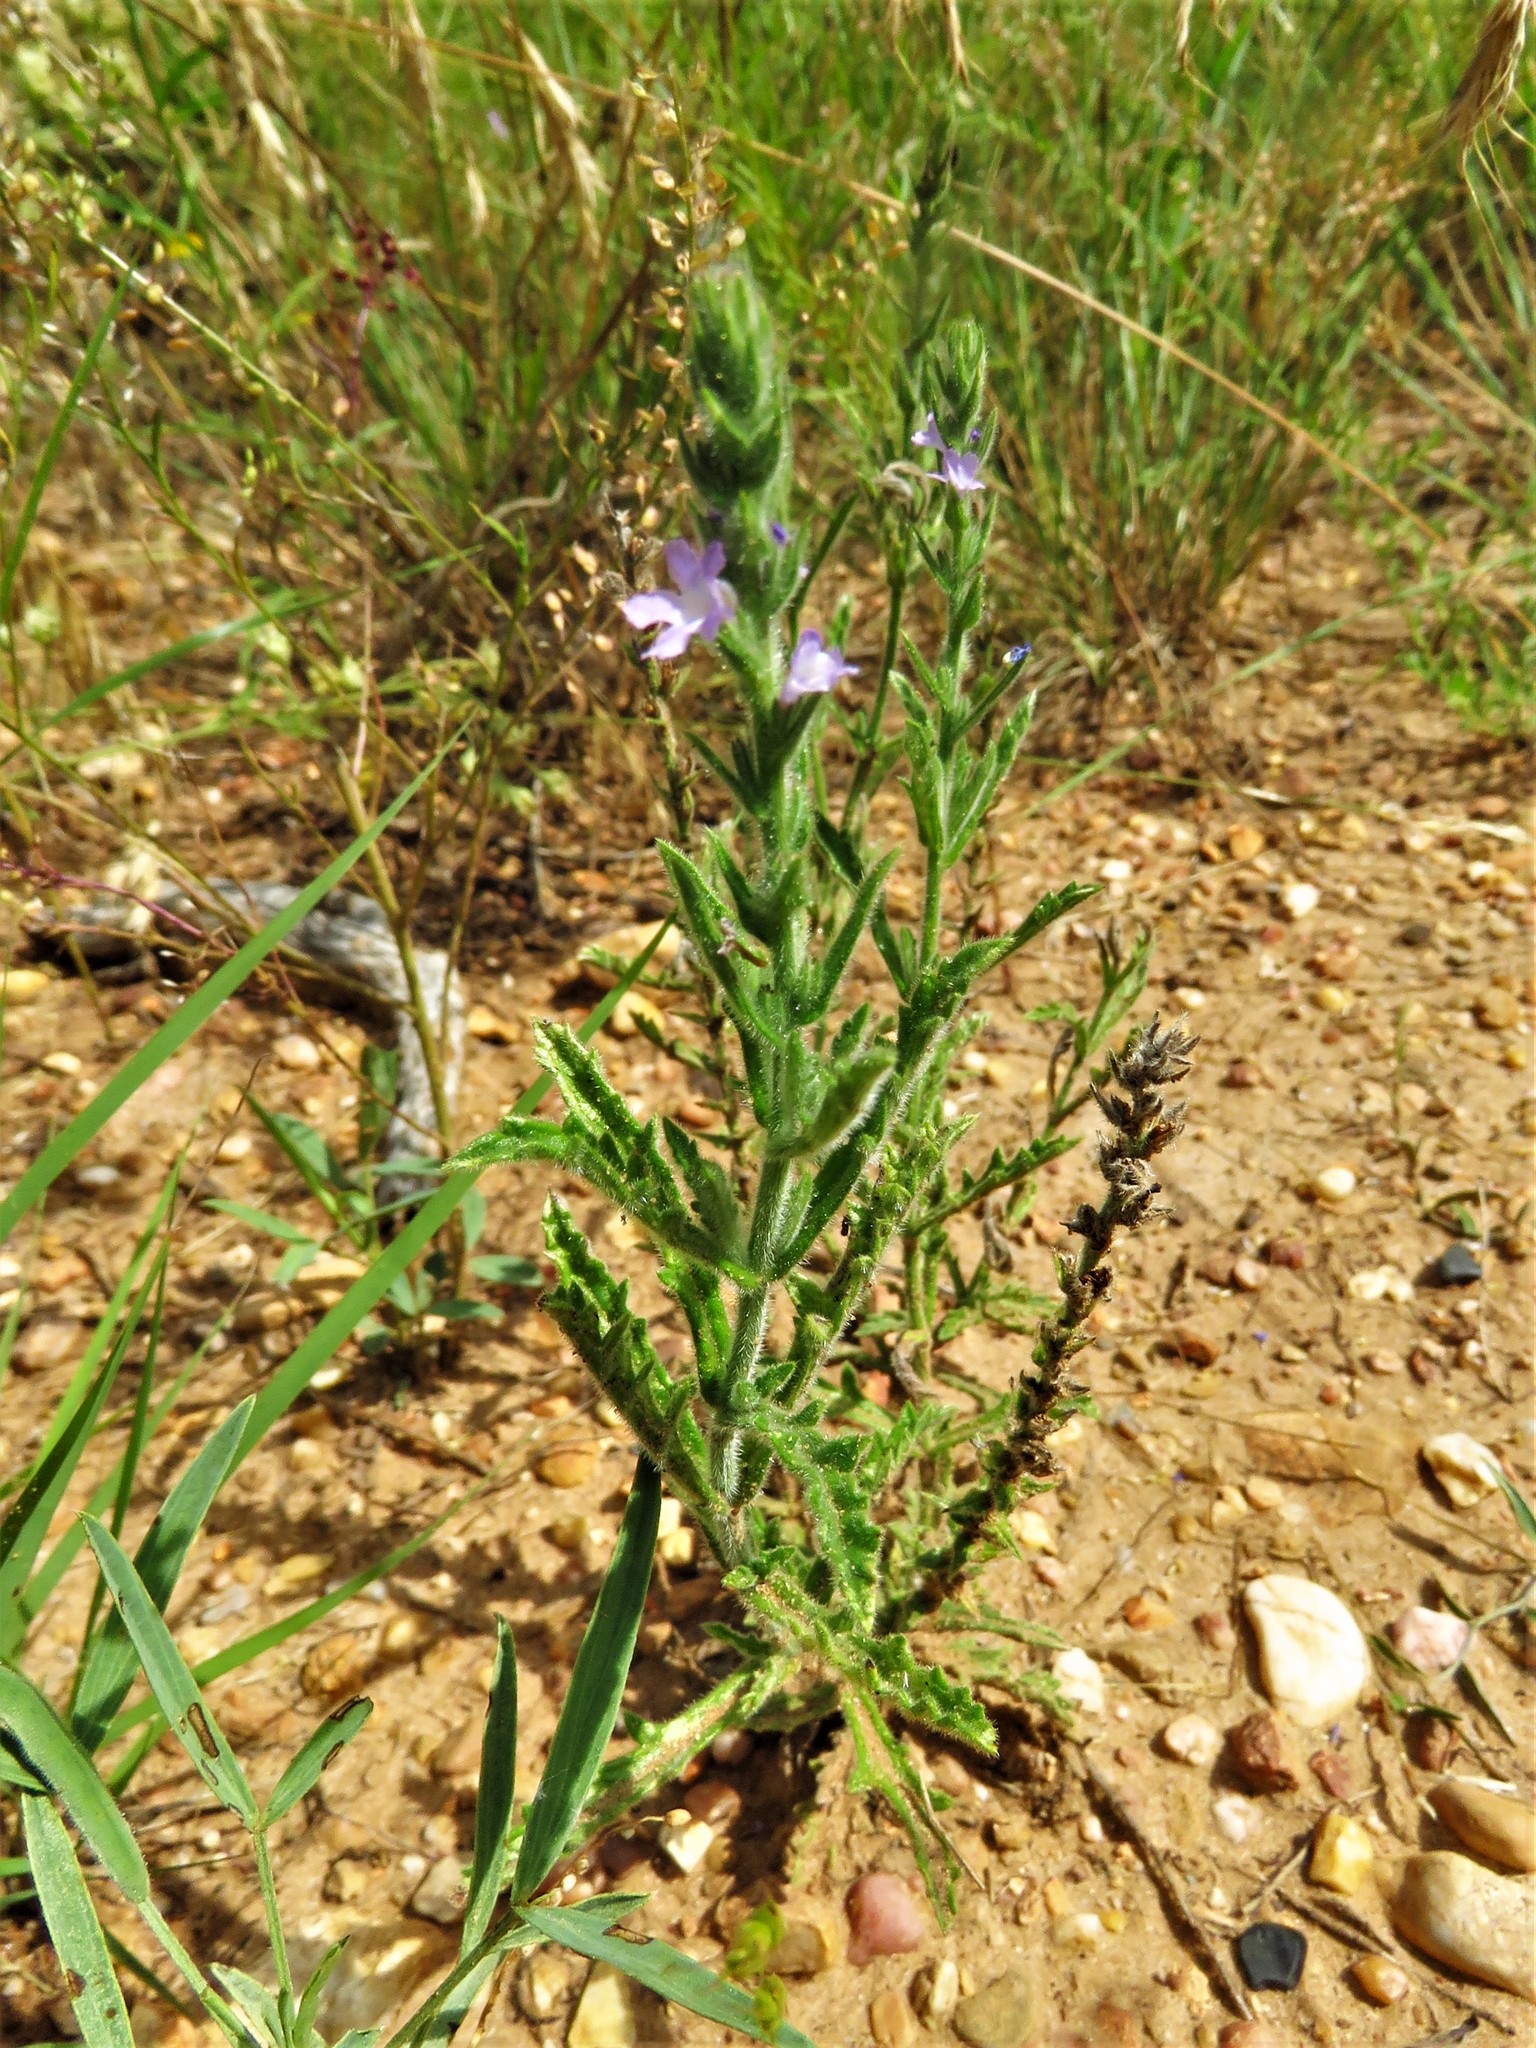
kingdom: Plantae
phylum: Tracheophyta
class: Magnoliopsida
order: Lamiales
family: Verbenaceae
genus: Verbena
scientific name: Verbena canescens
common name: Gray vervain
